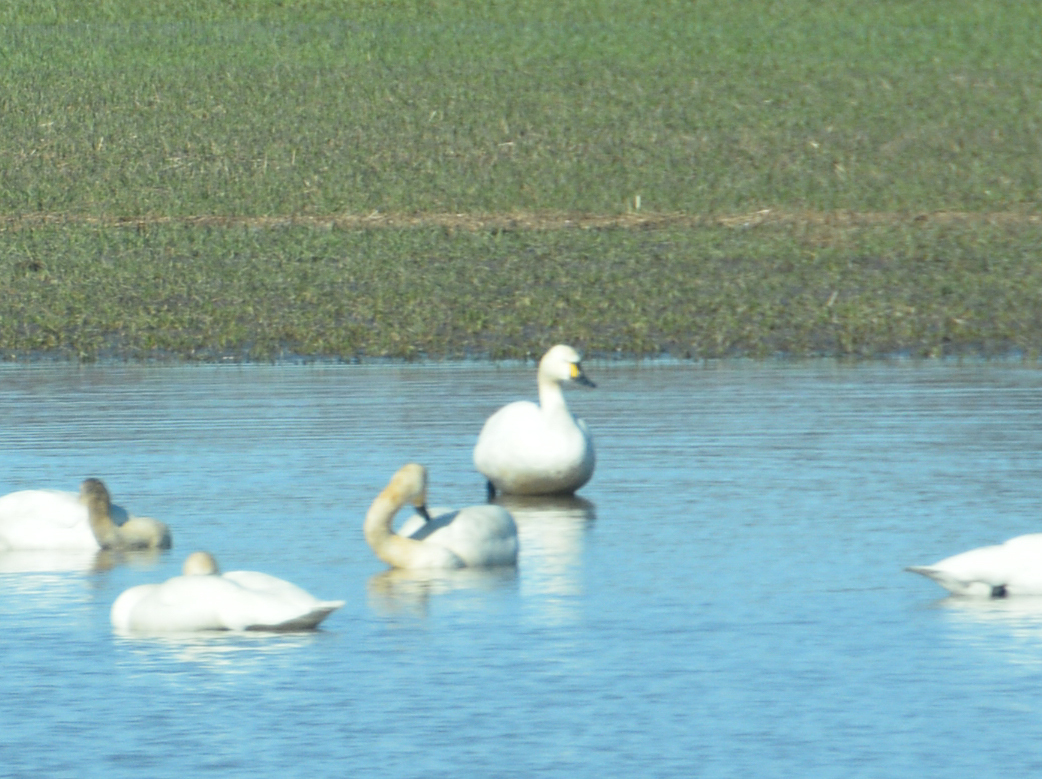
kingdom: Animalia
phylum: Chordata
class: Aves
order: Anseriformes
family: Anatidae
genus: Cygnus
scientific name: Cygnus columbianus
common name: Tundra swan
